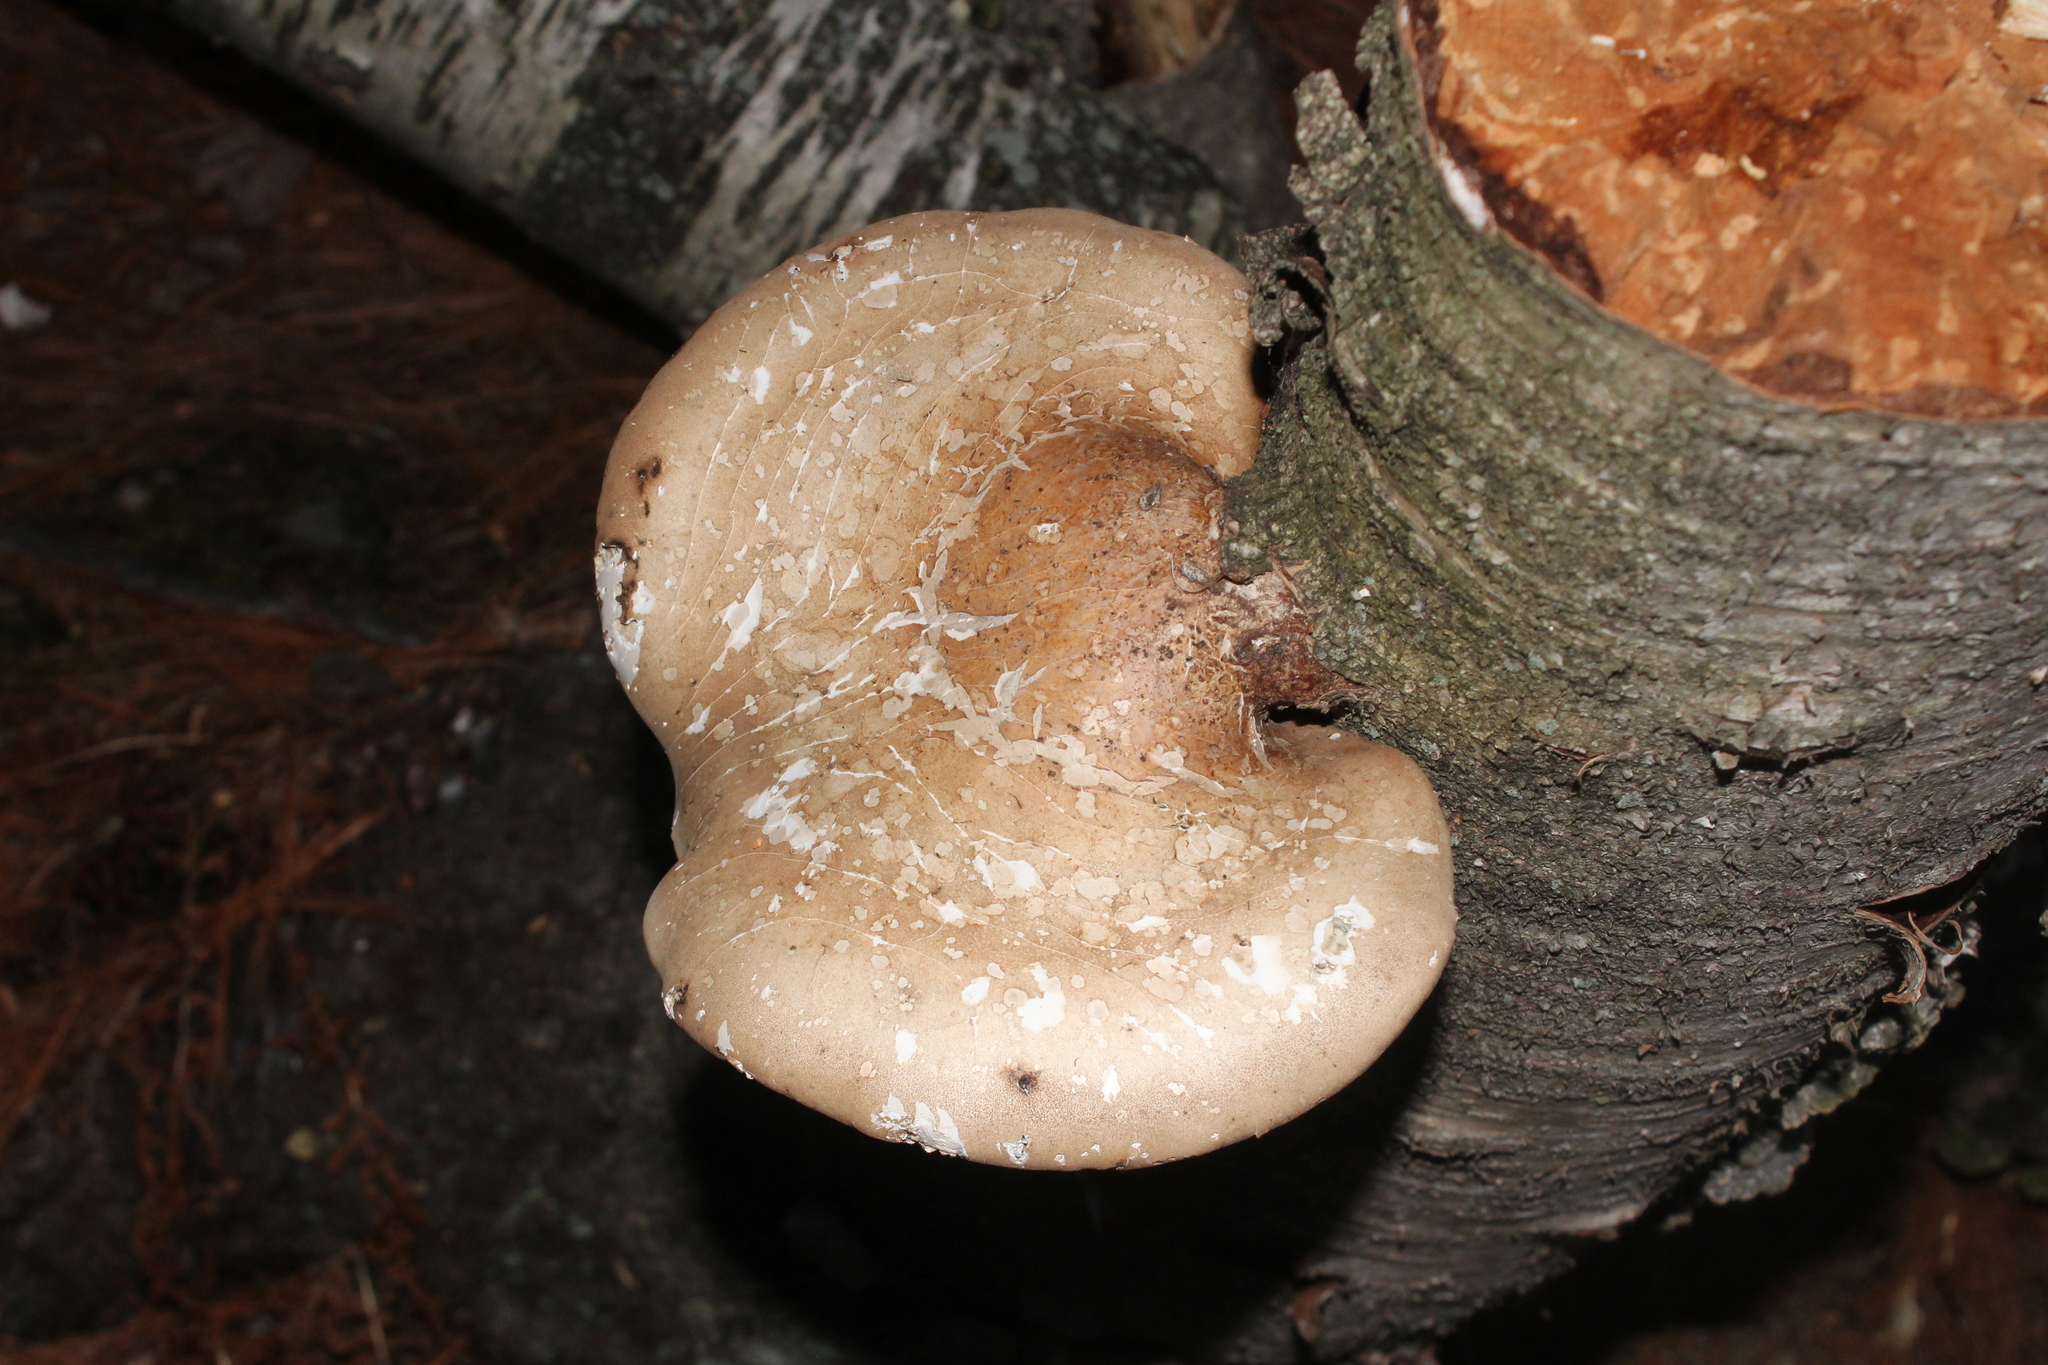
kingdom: Fungi
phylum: Basidiomycota
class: Agaricomycetes
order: Polyporales
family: Fomitopsidaceae
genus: Fomitopsis
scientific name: Fomitopsis betulina
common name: Birch polypore
